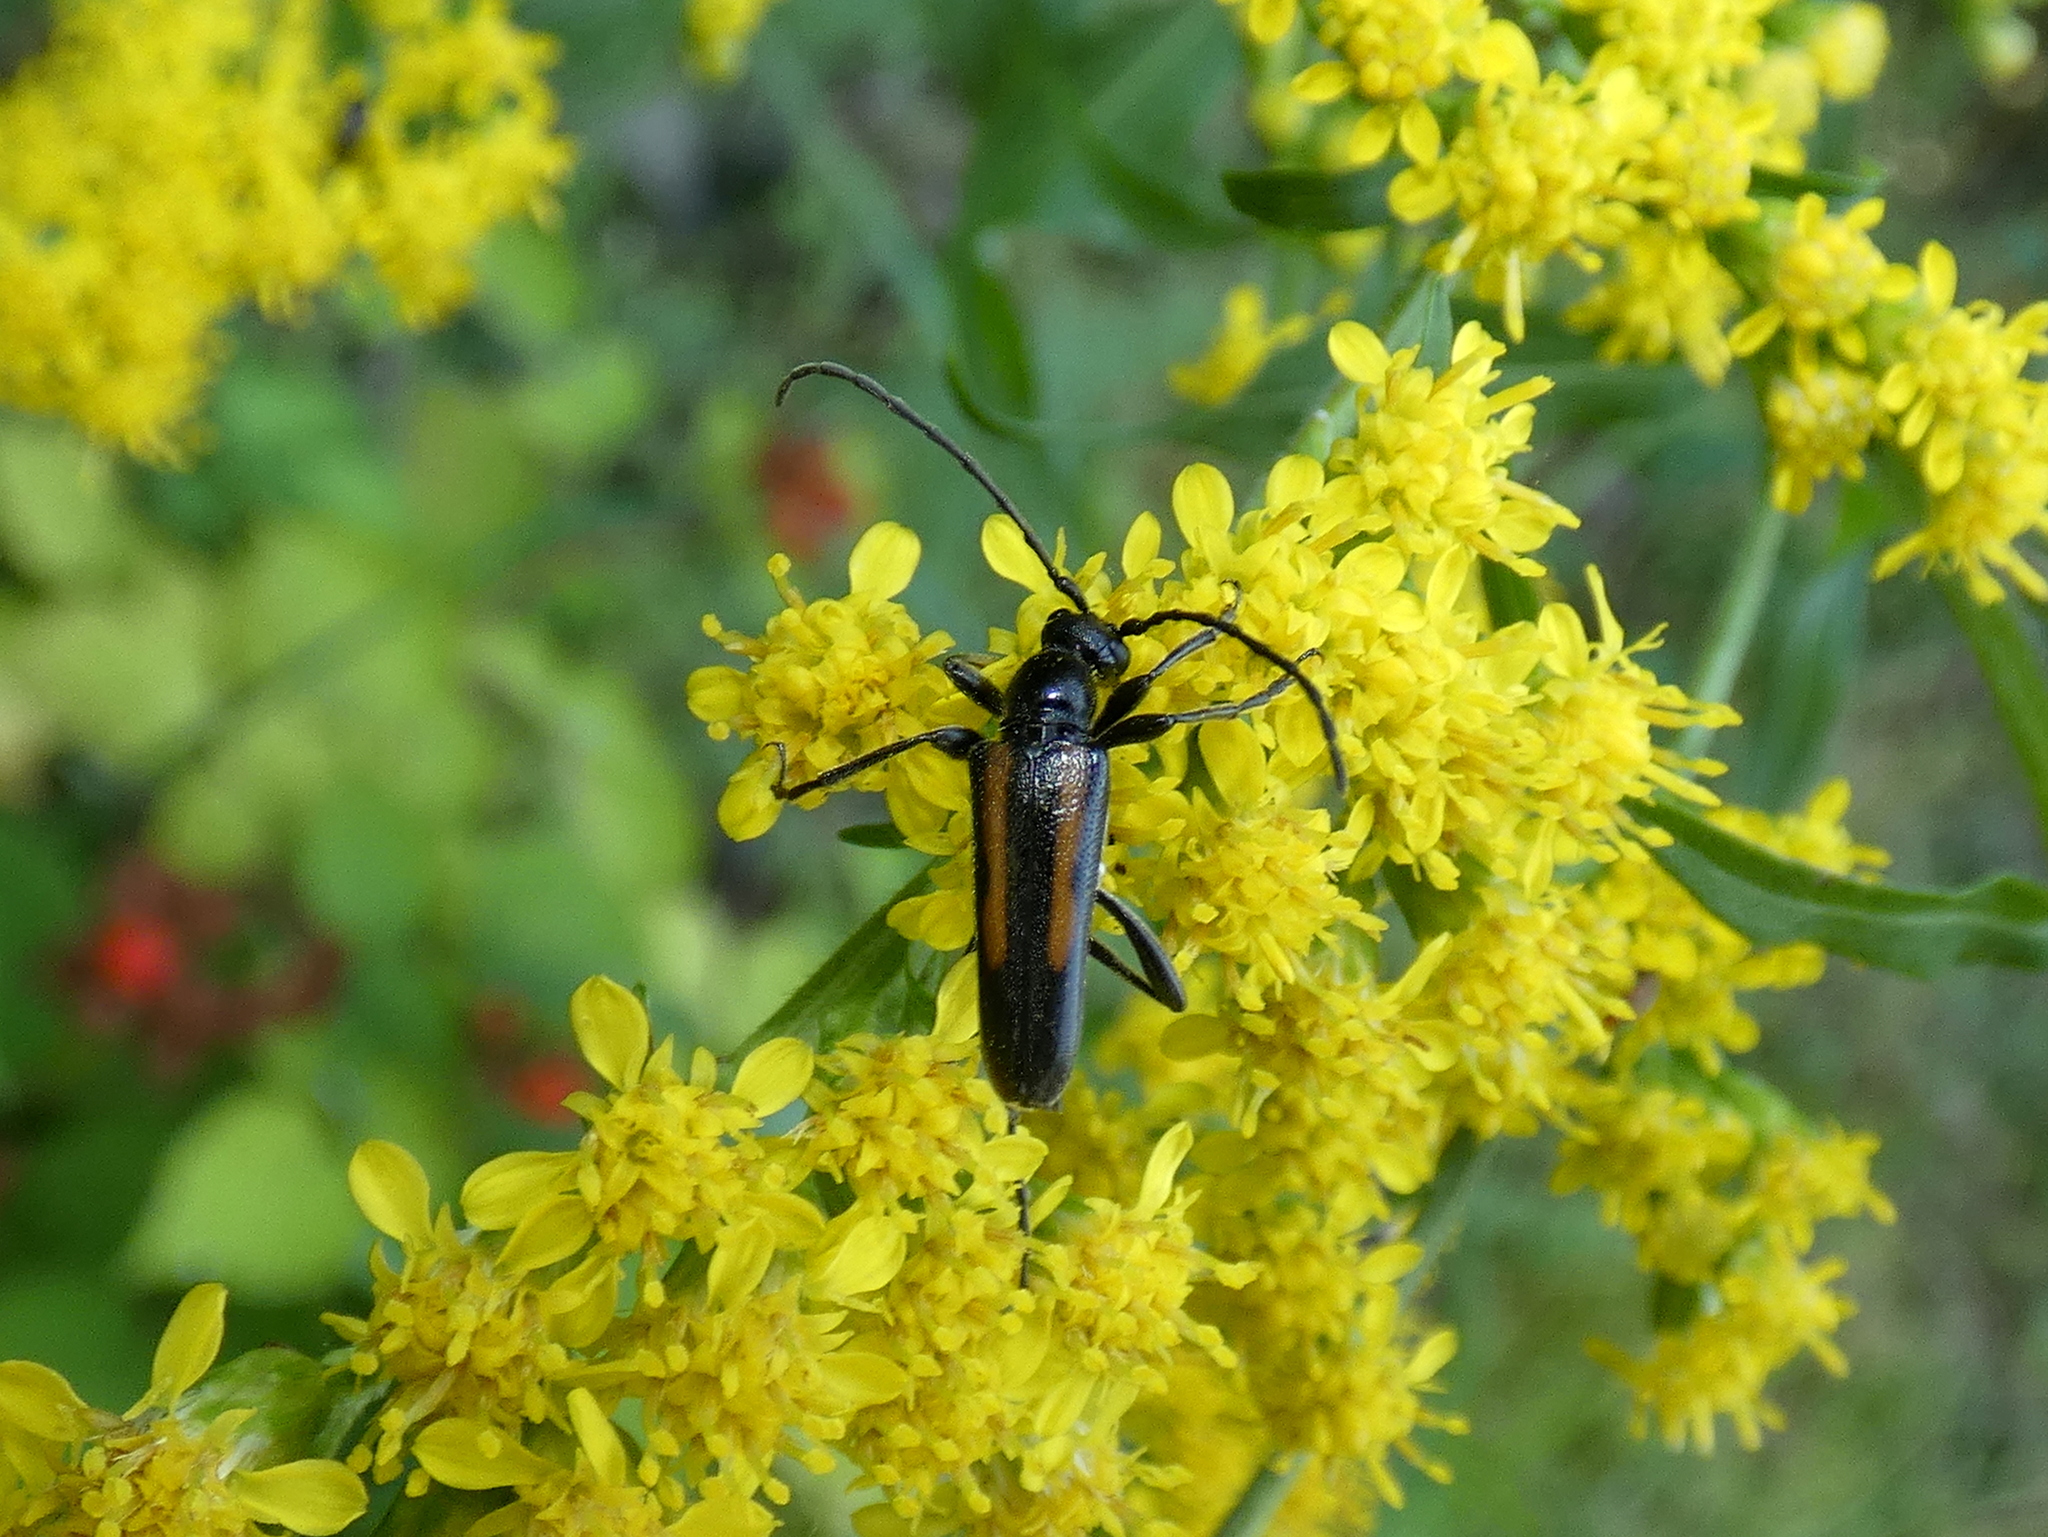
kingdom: Animalia
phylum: Arthropoda
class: Insecta
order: Coleoptera
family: Cerambycidae
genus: Strangalepta
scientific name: Strangalepta abbreviata
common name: Strangalepta flower longhorn beetle
